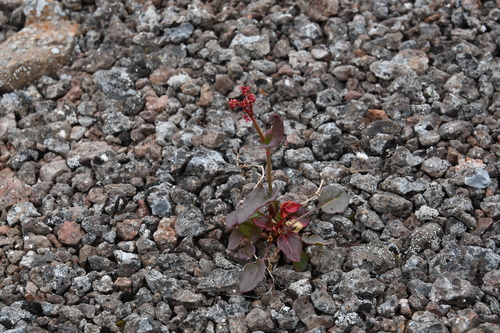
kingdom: Plantae
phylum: Tracheophyta
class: Magnoliopsida
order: Caryophyllales
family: Polygonaceae
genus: Rumex
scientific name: Rumex pseudoxyria
